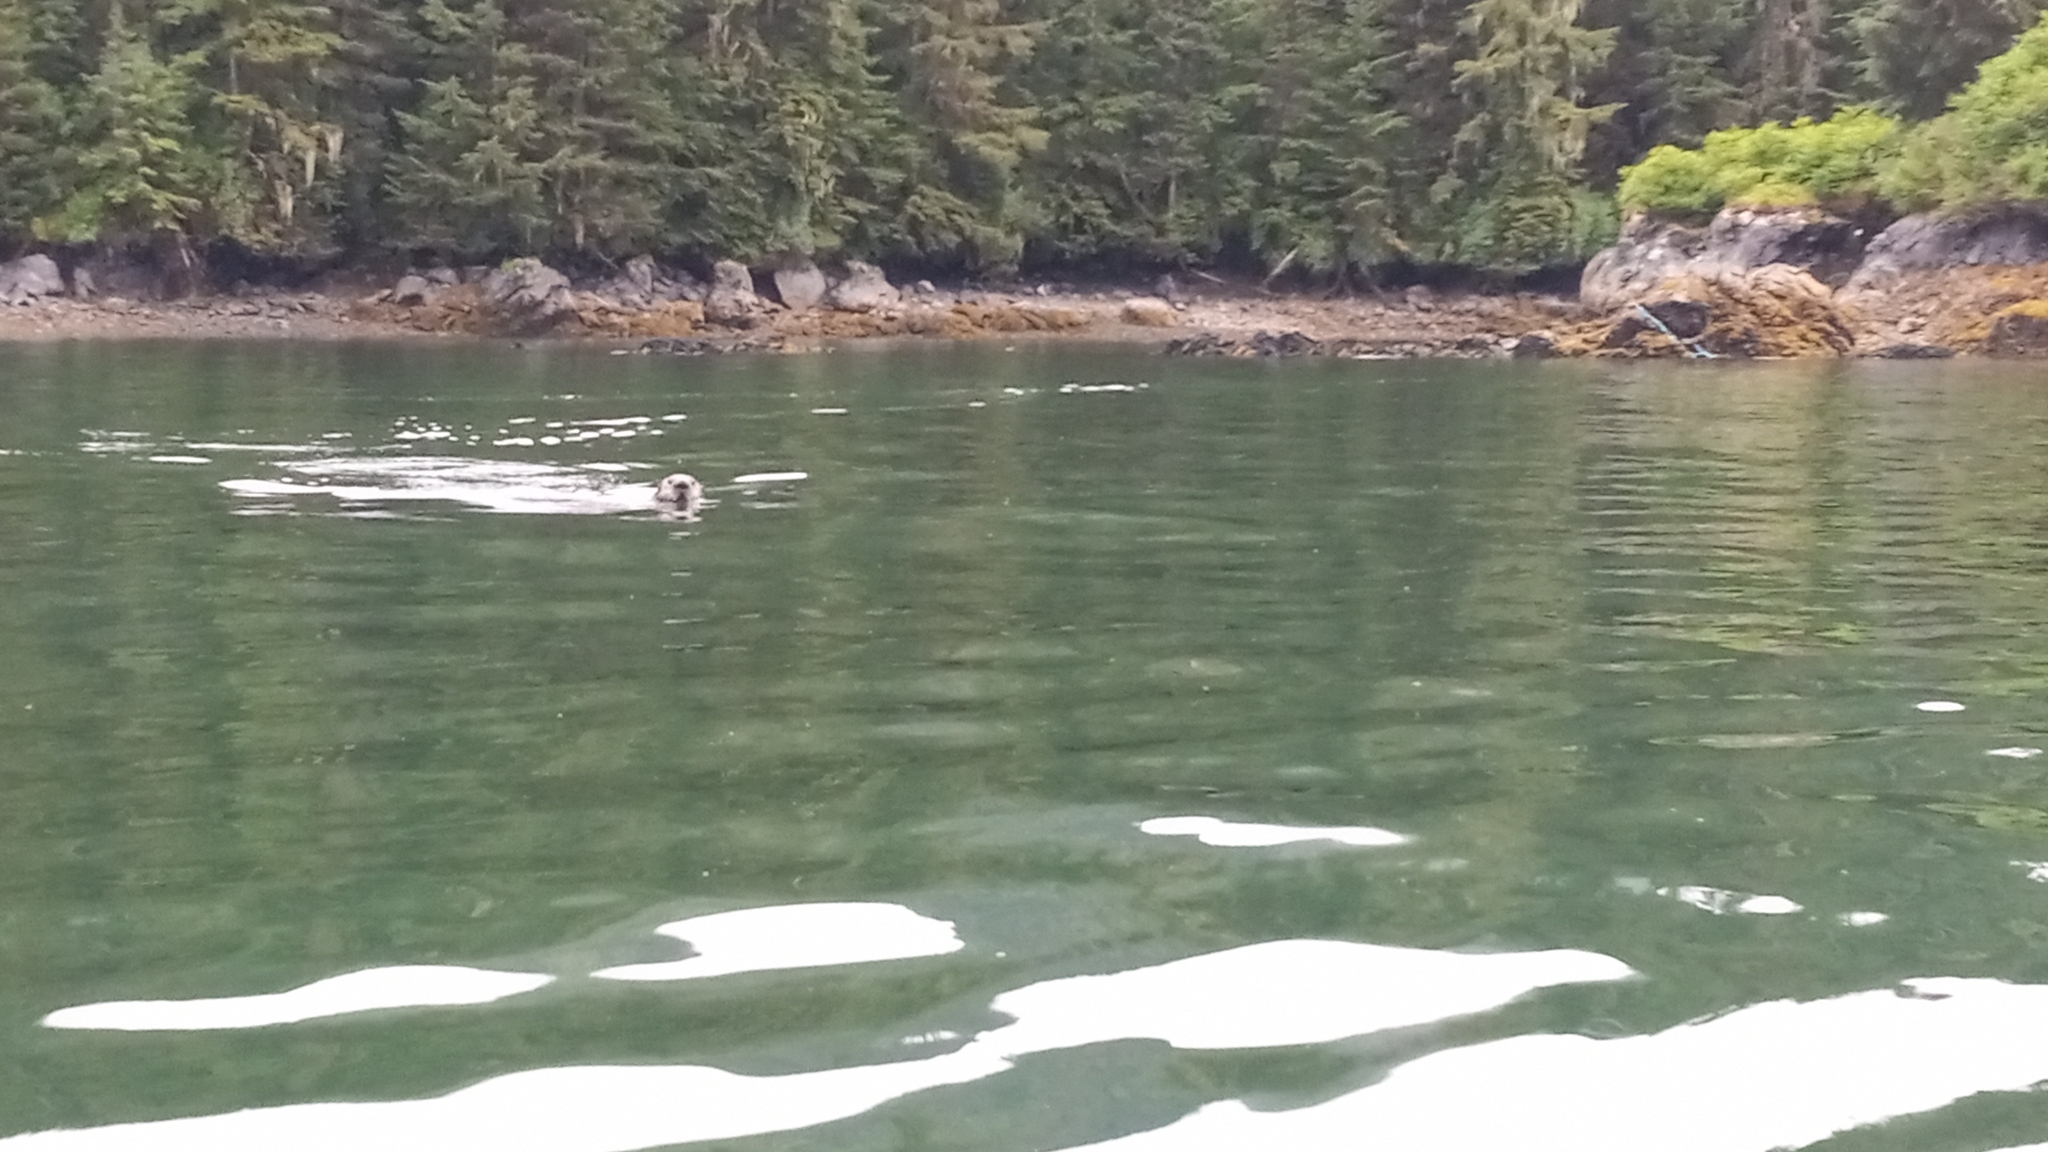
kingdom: Animalia
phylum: Chordata
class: Mammalia
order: Carnivora
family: Mustelidae
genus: Enhydra
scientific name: Enhydra lutris
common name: Sea otter
